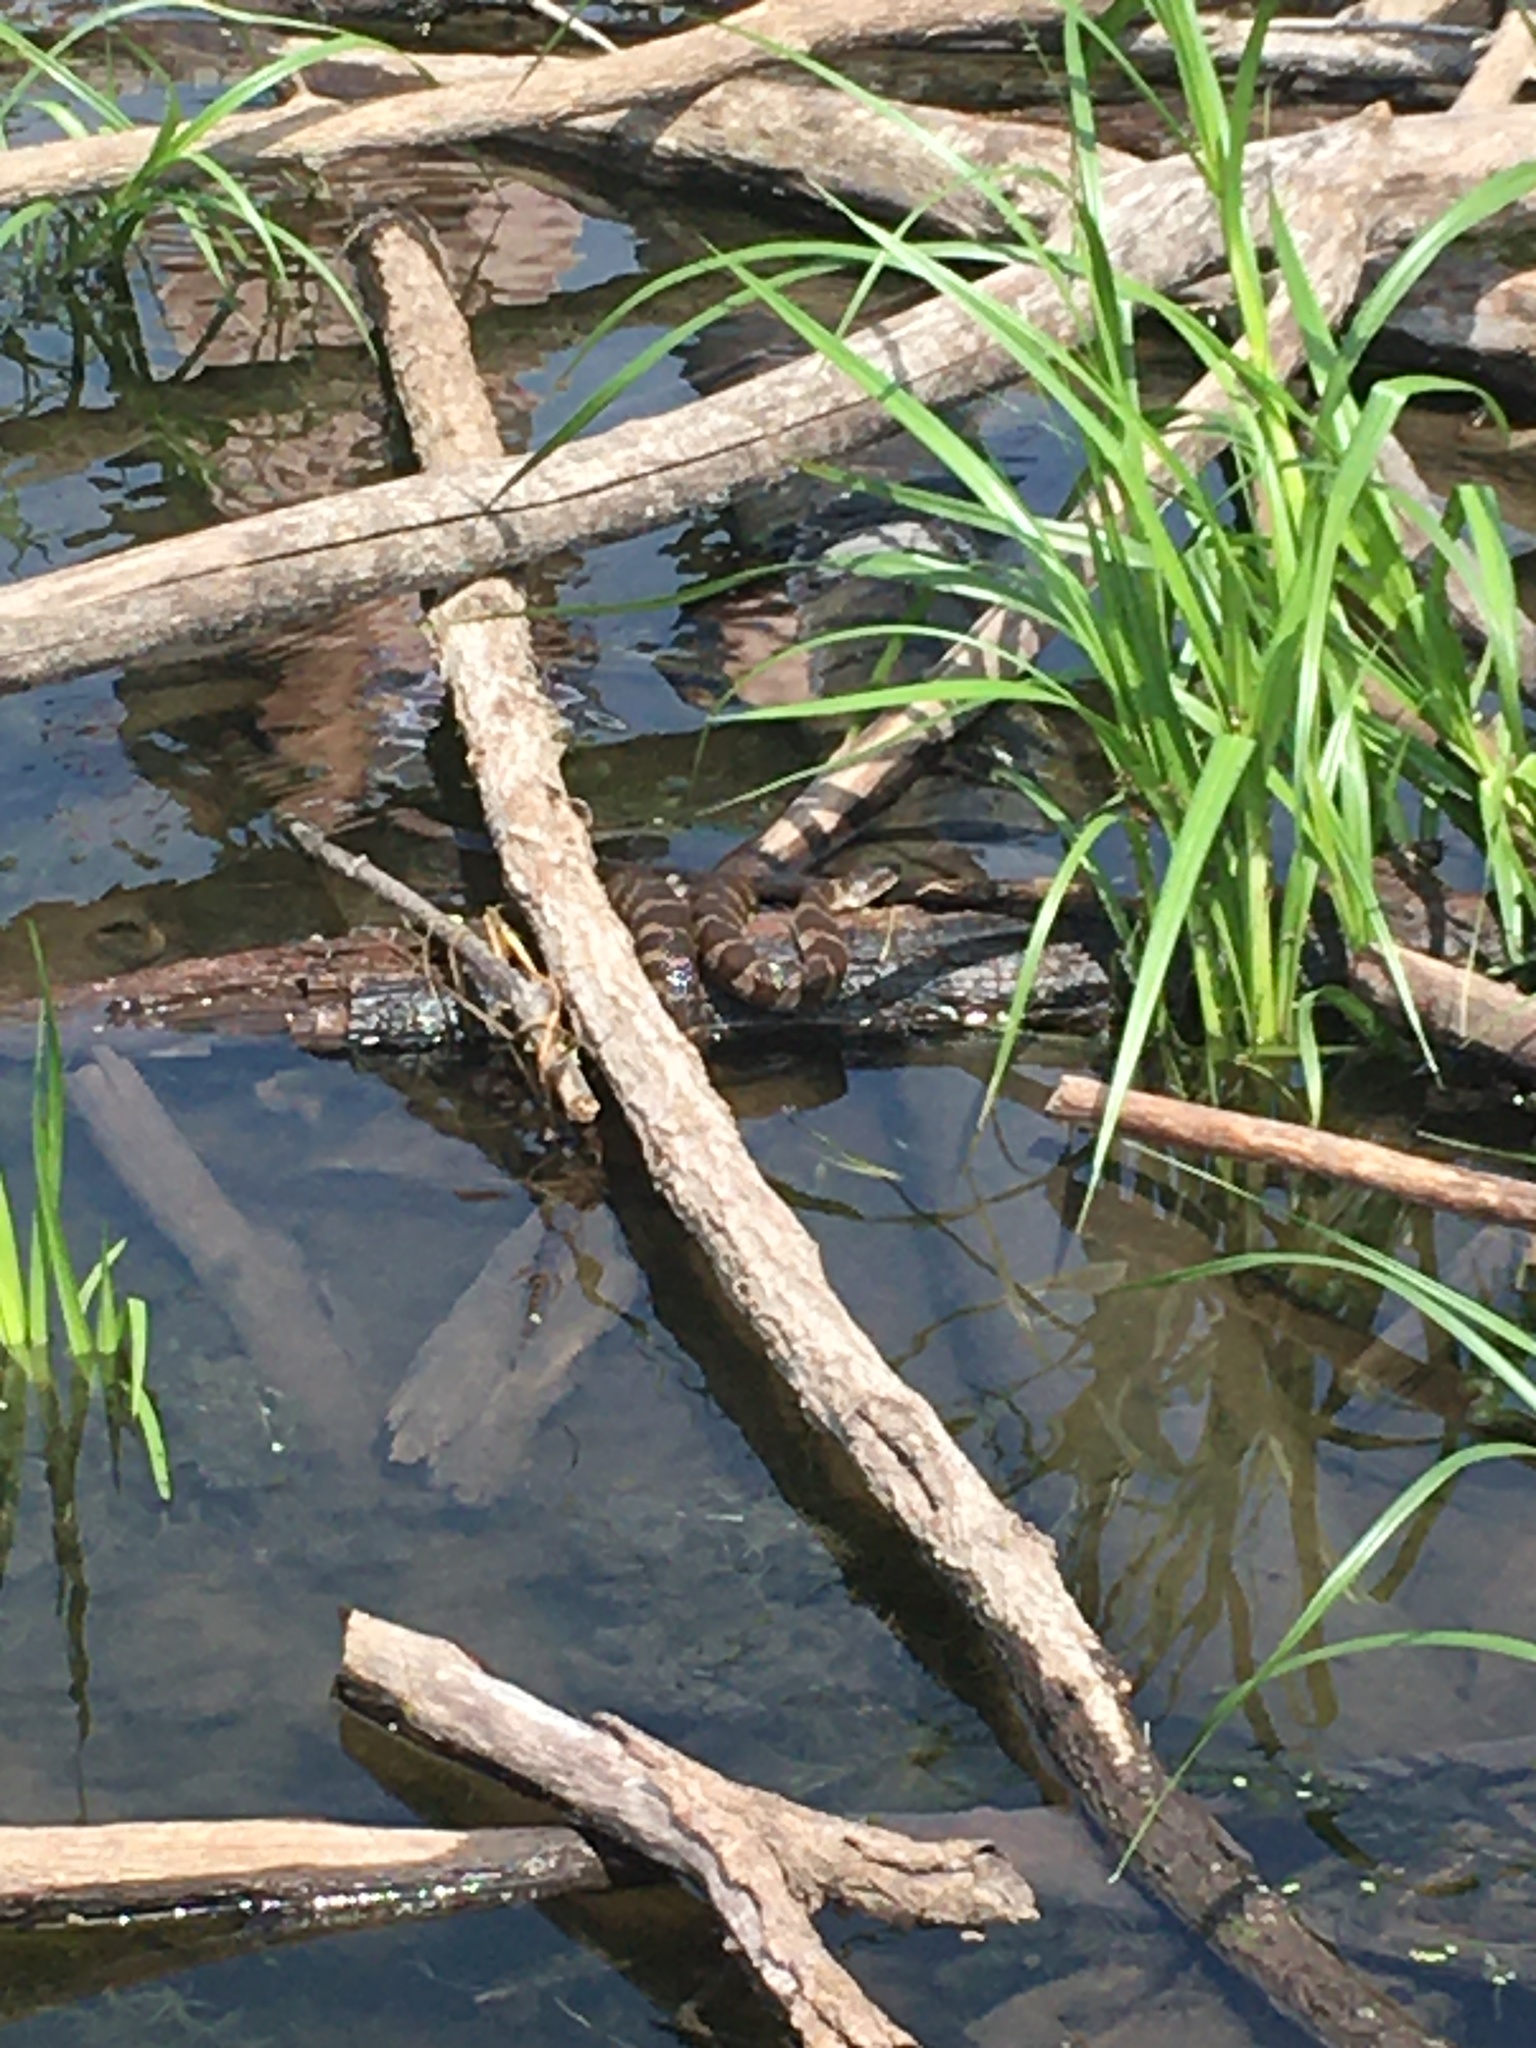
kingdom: Animalia
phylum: Chordata
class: Squamata
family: Colubridae
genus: Nerodia
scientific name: Nerodia sipedon
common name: Northern water snake
